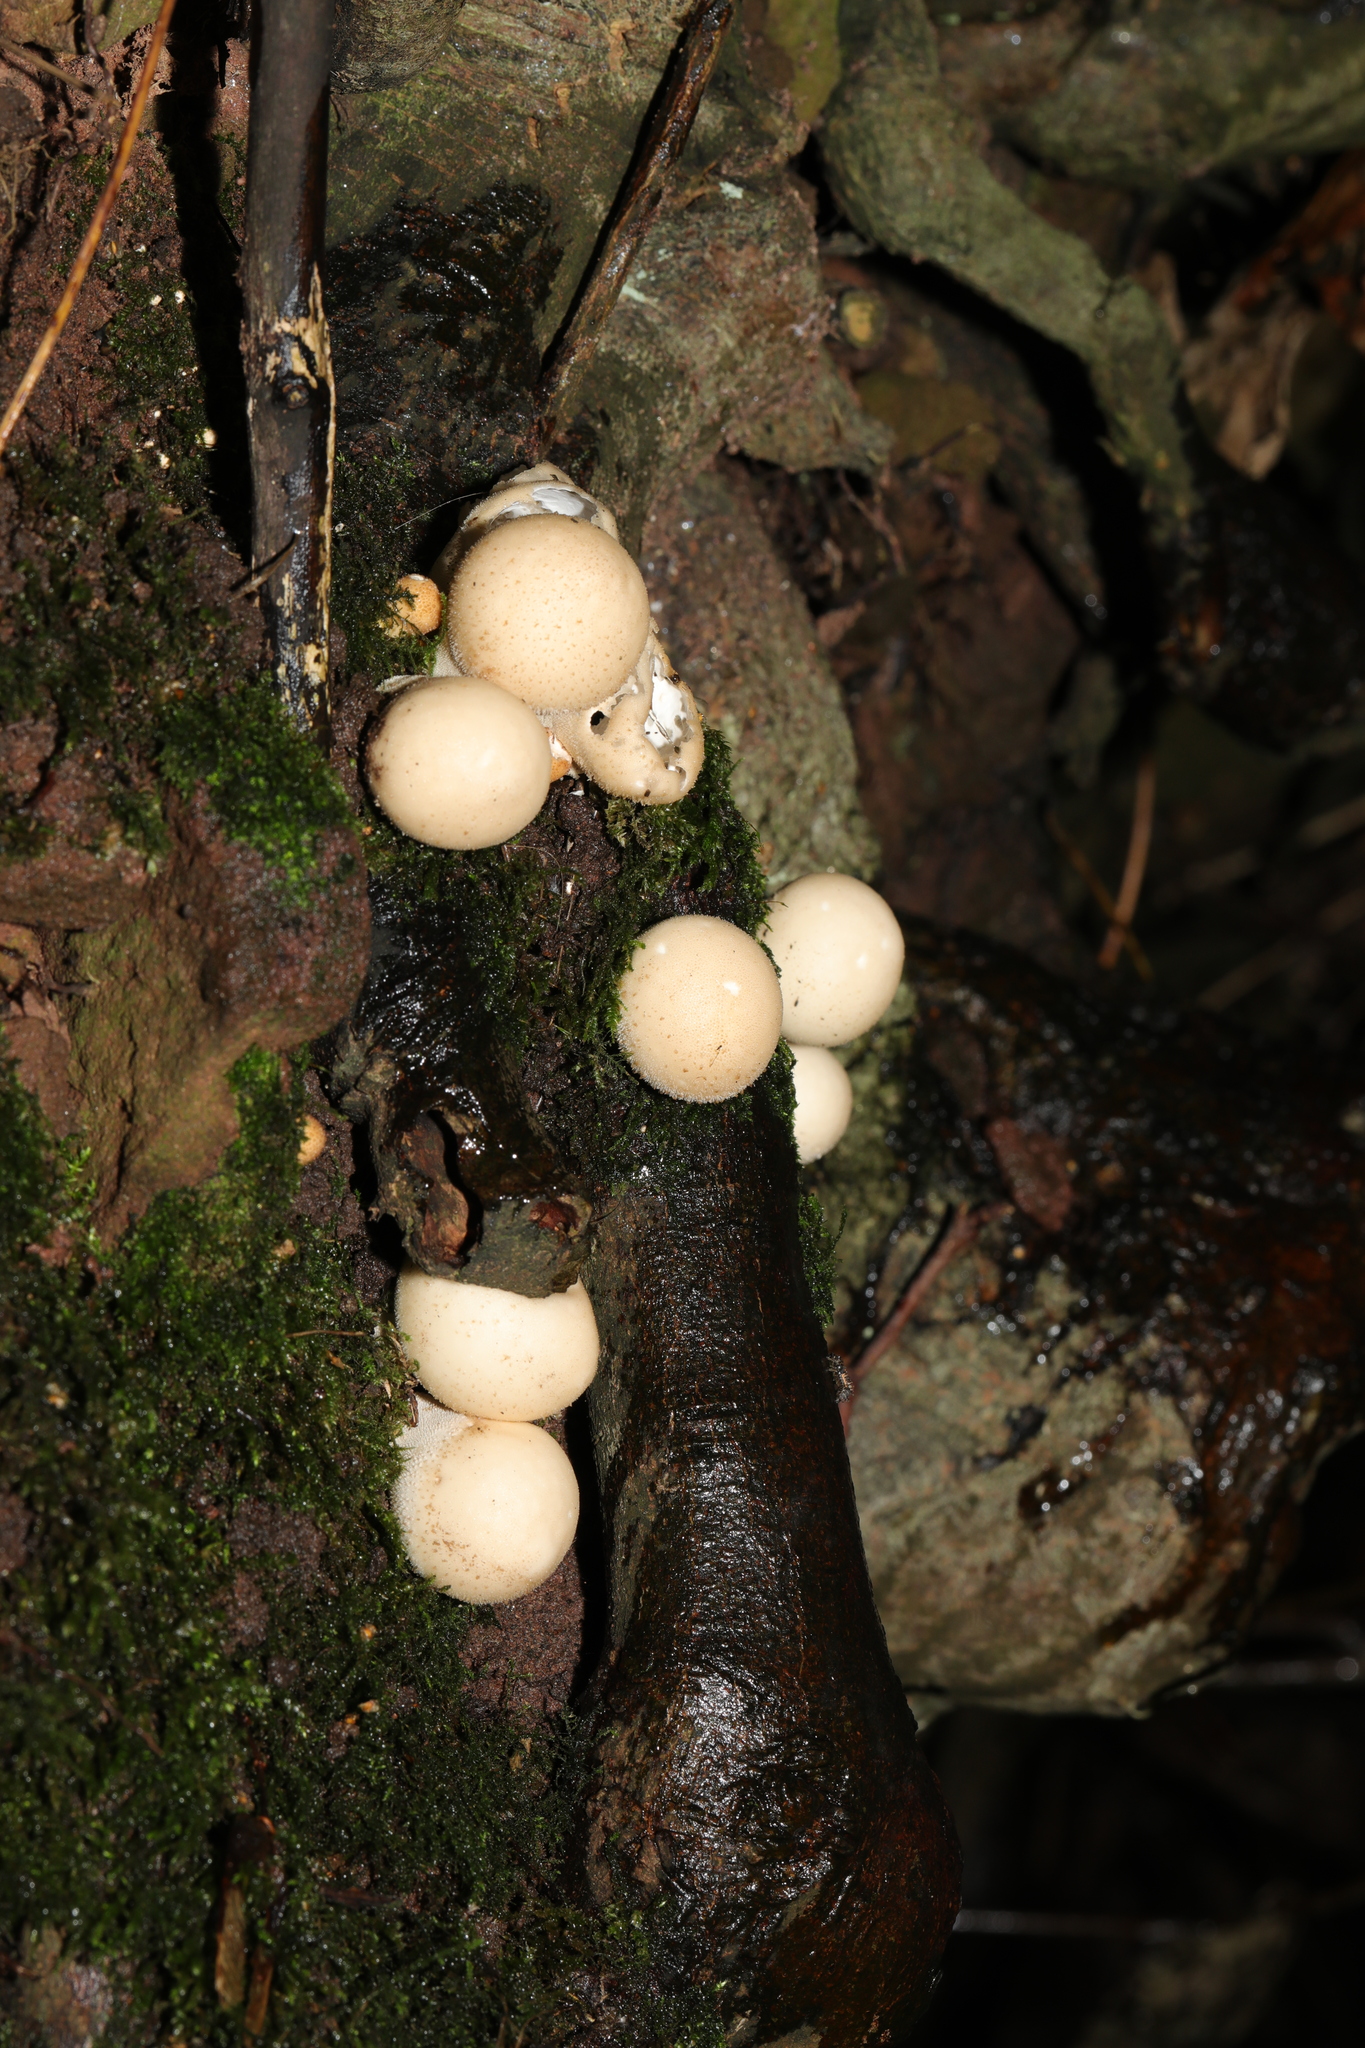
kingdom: Fungi
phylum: Basidiomycota
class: Agaricomycetes
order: Agaricales
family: Lycoperdaceae
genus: Apioperdon
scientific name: Apioperdon pyriforme
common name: Pear-shaped puffball
